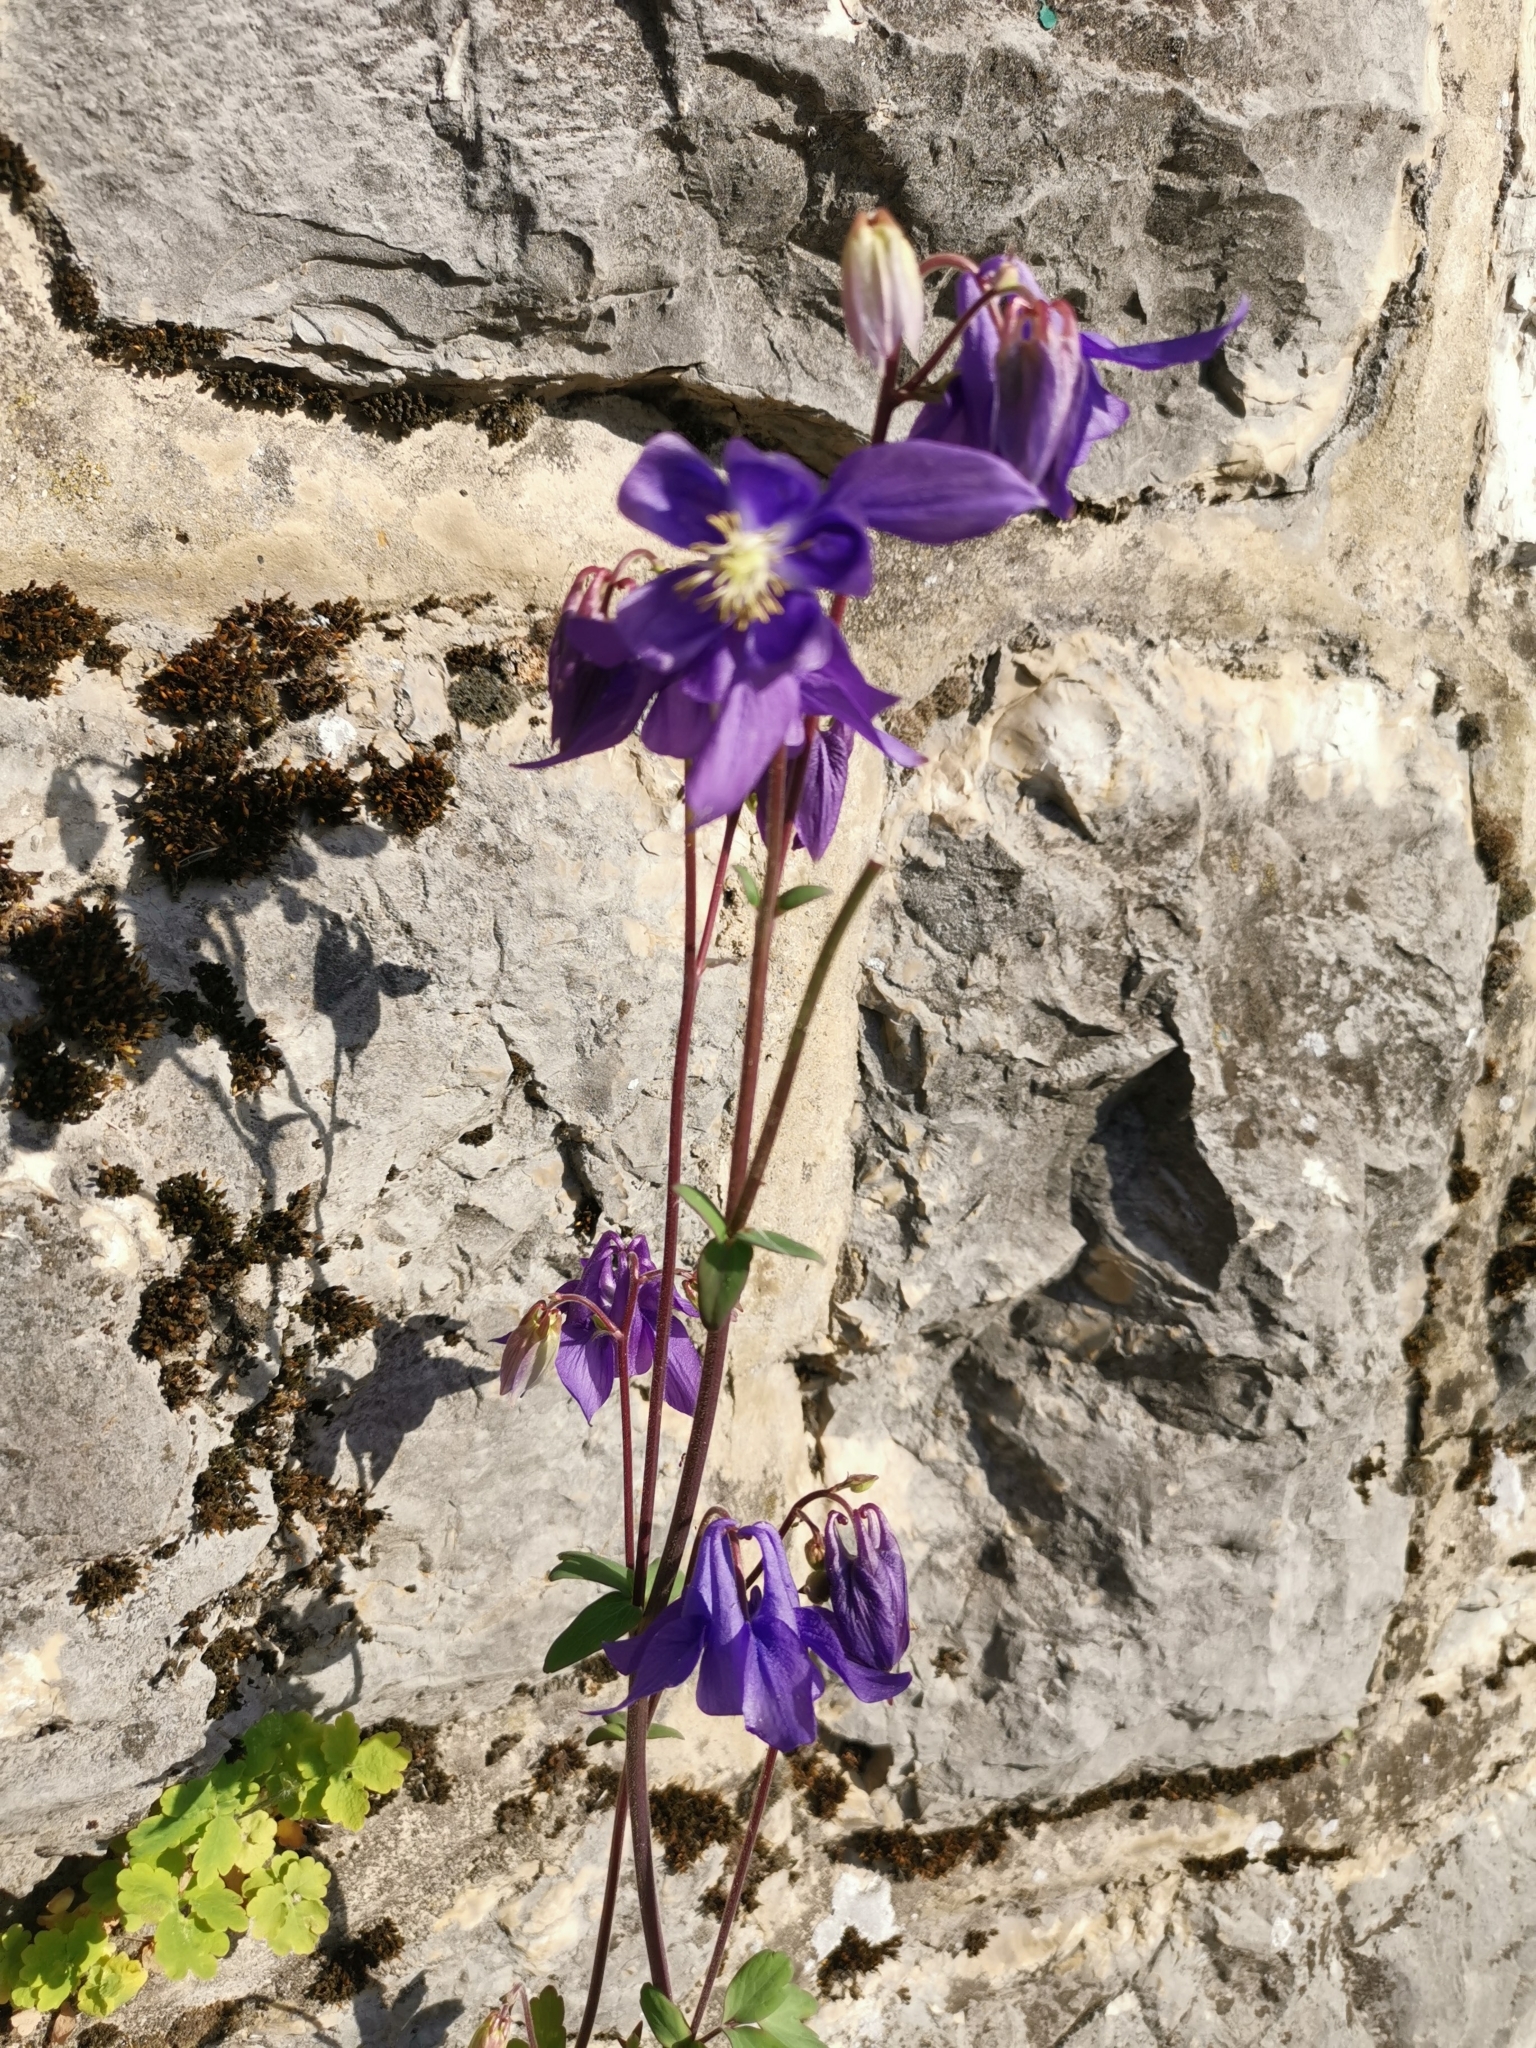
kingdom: Plantae
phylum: Tracheophyta
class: Magnoliopsida
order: Ranunculales
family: Ranunculaceae
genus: Aquilegia
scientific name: Aquilegia vulgaris
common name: Columbine
